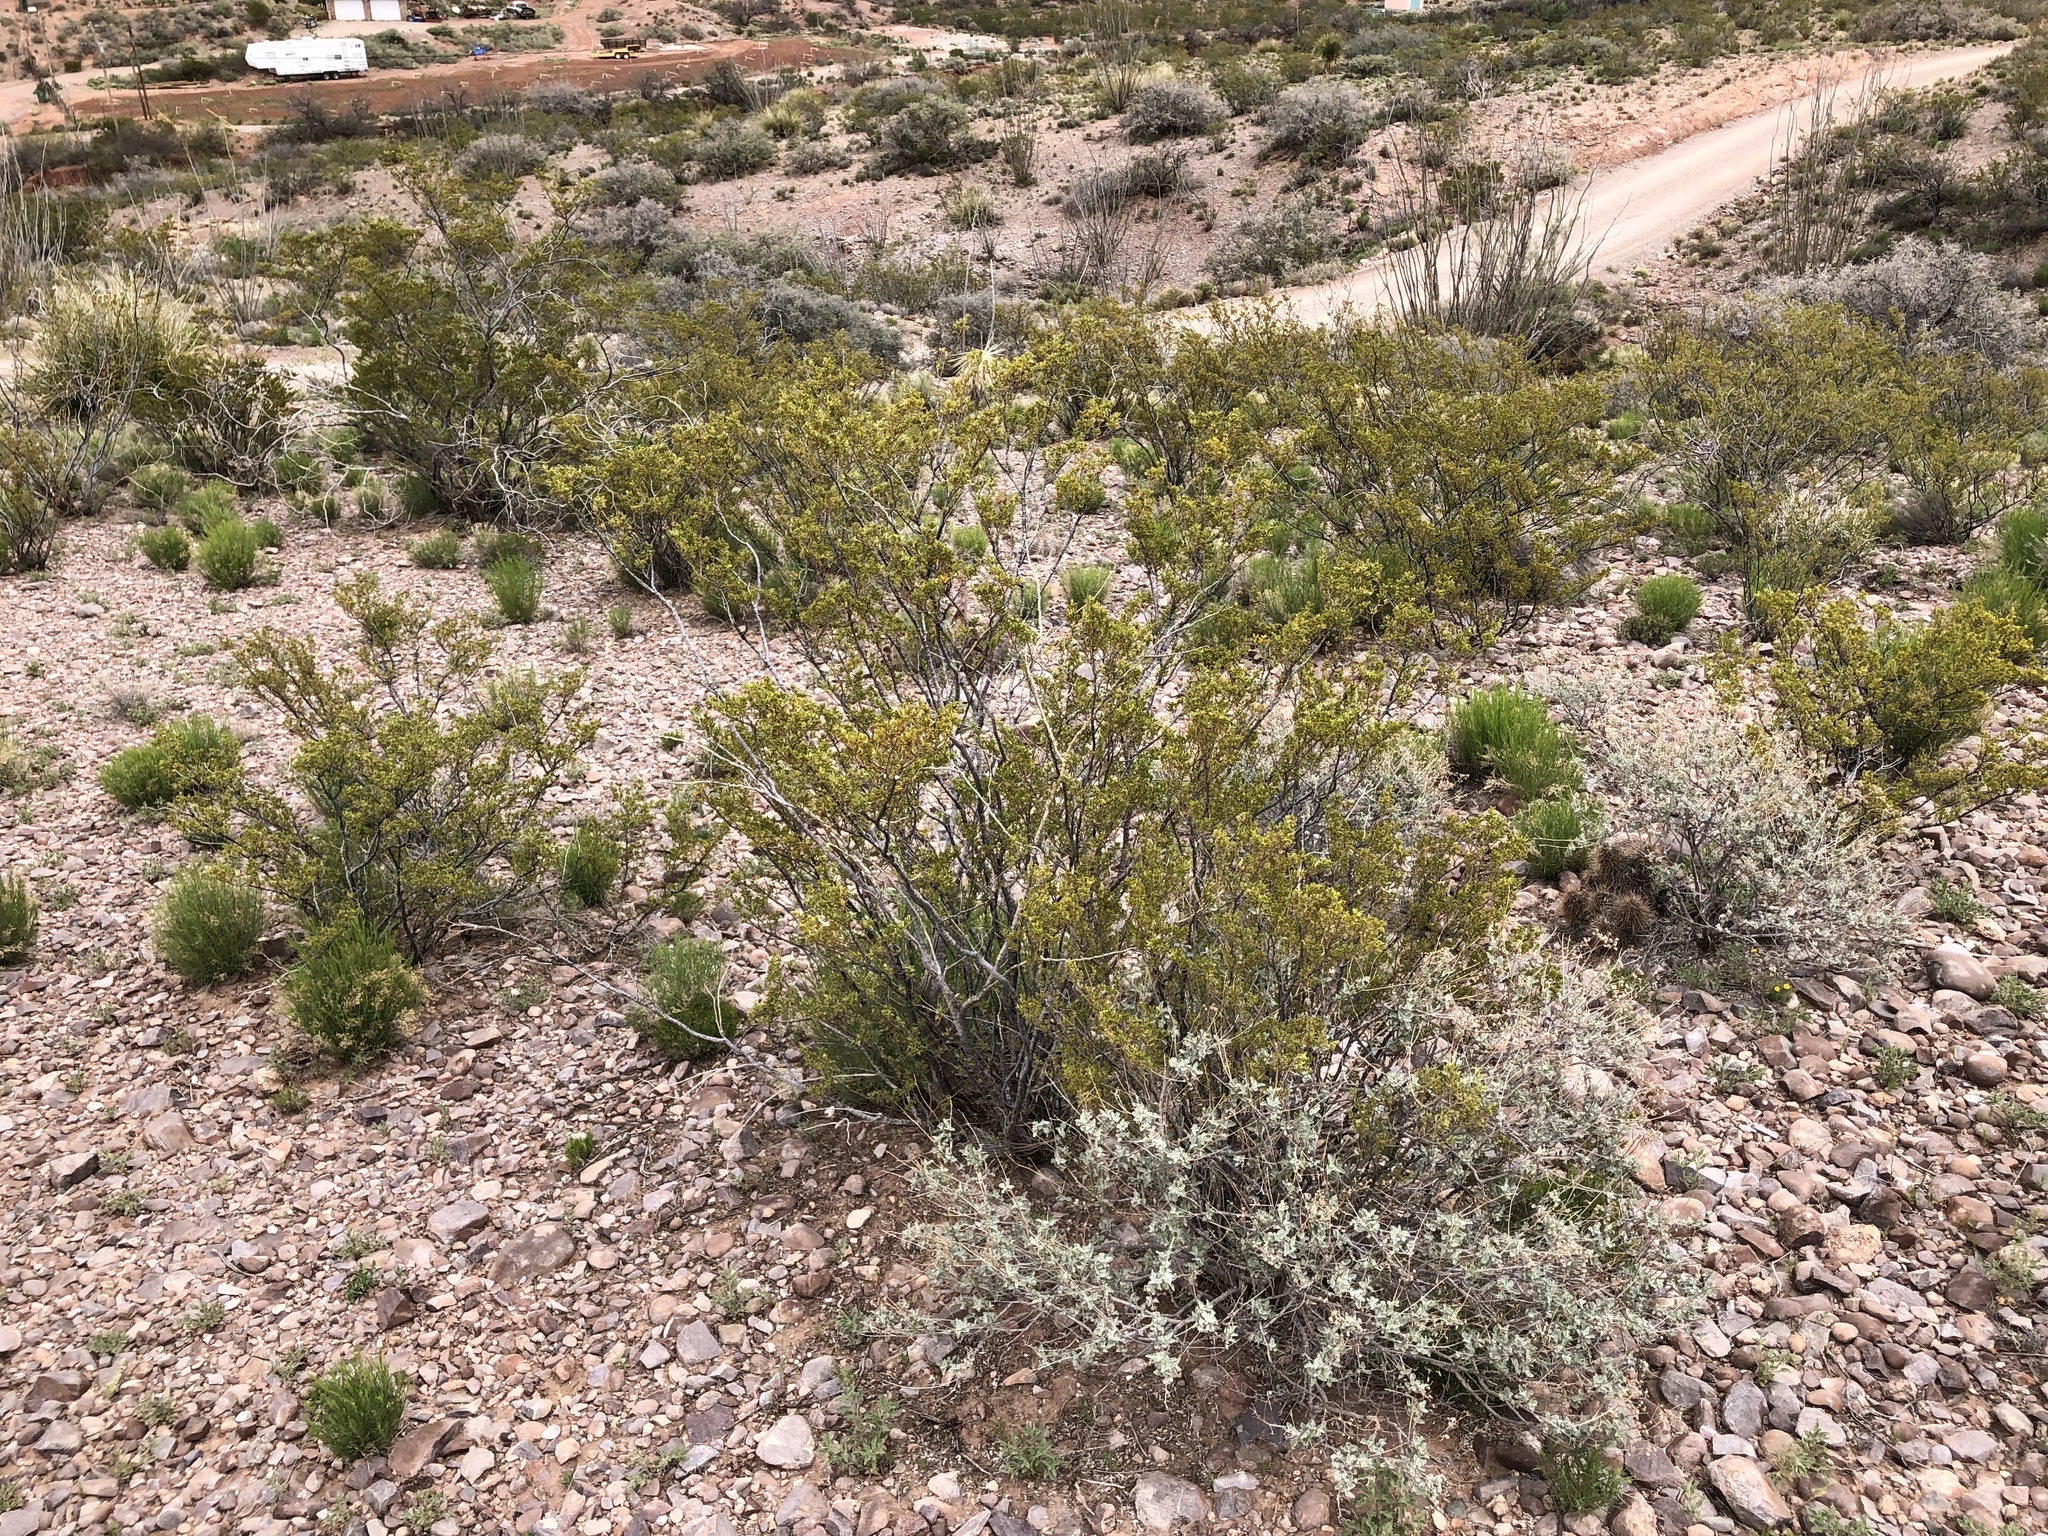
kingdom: Plantae
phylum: Tracheophyta
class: Magnoliopsida
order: Zygophyllales
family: Zygophyllaceae
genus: Larrea
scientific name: Larrea tridentata
